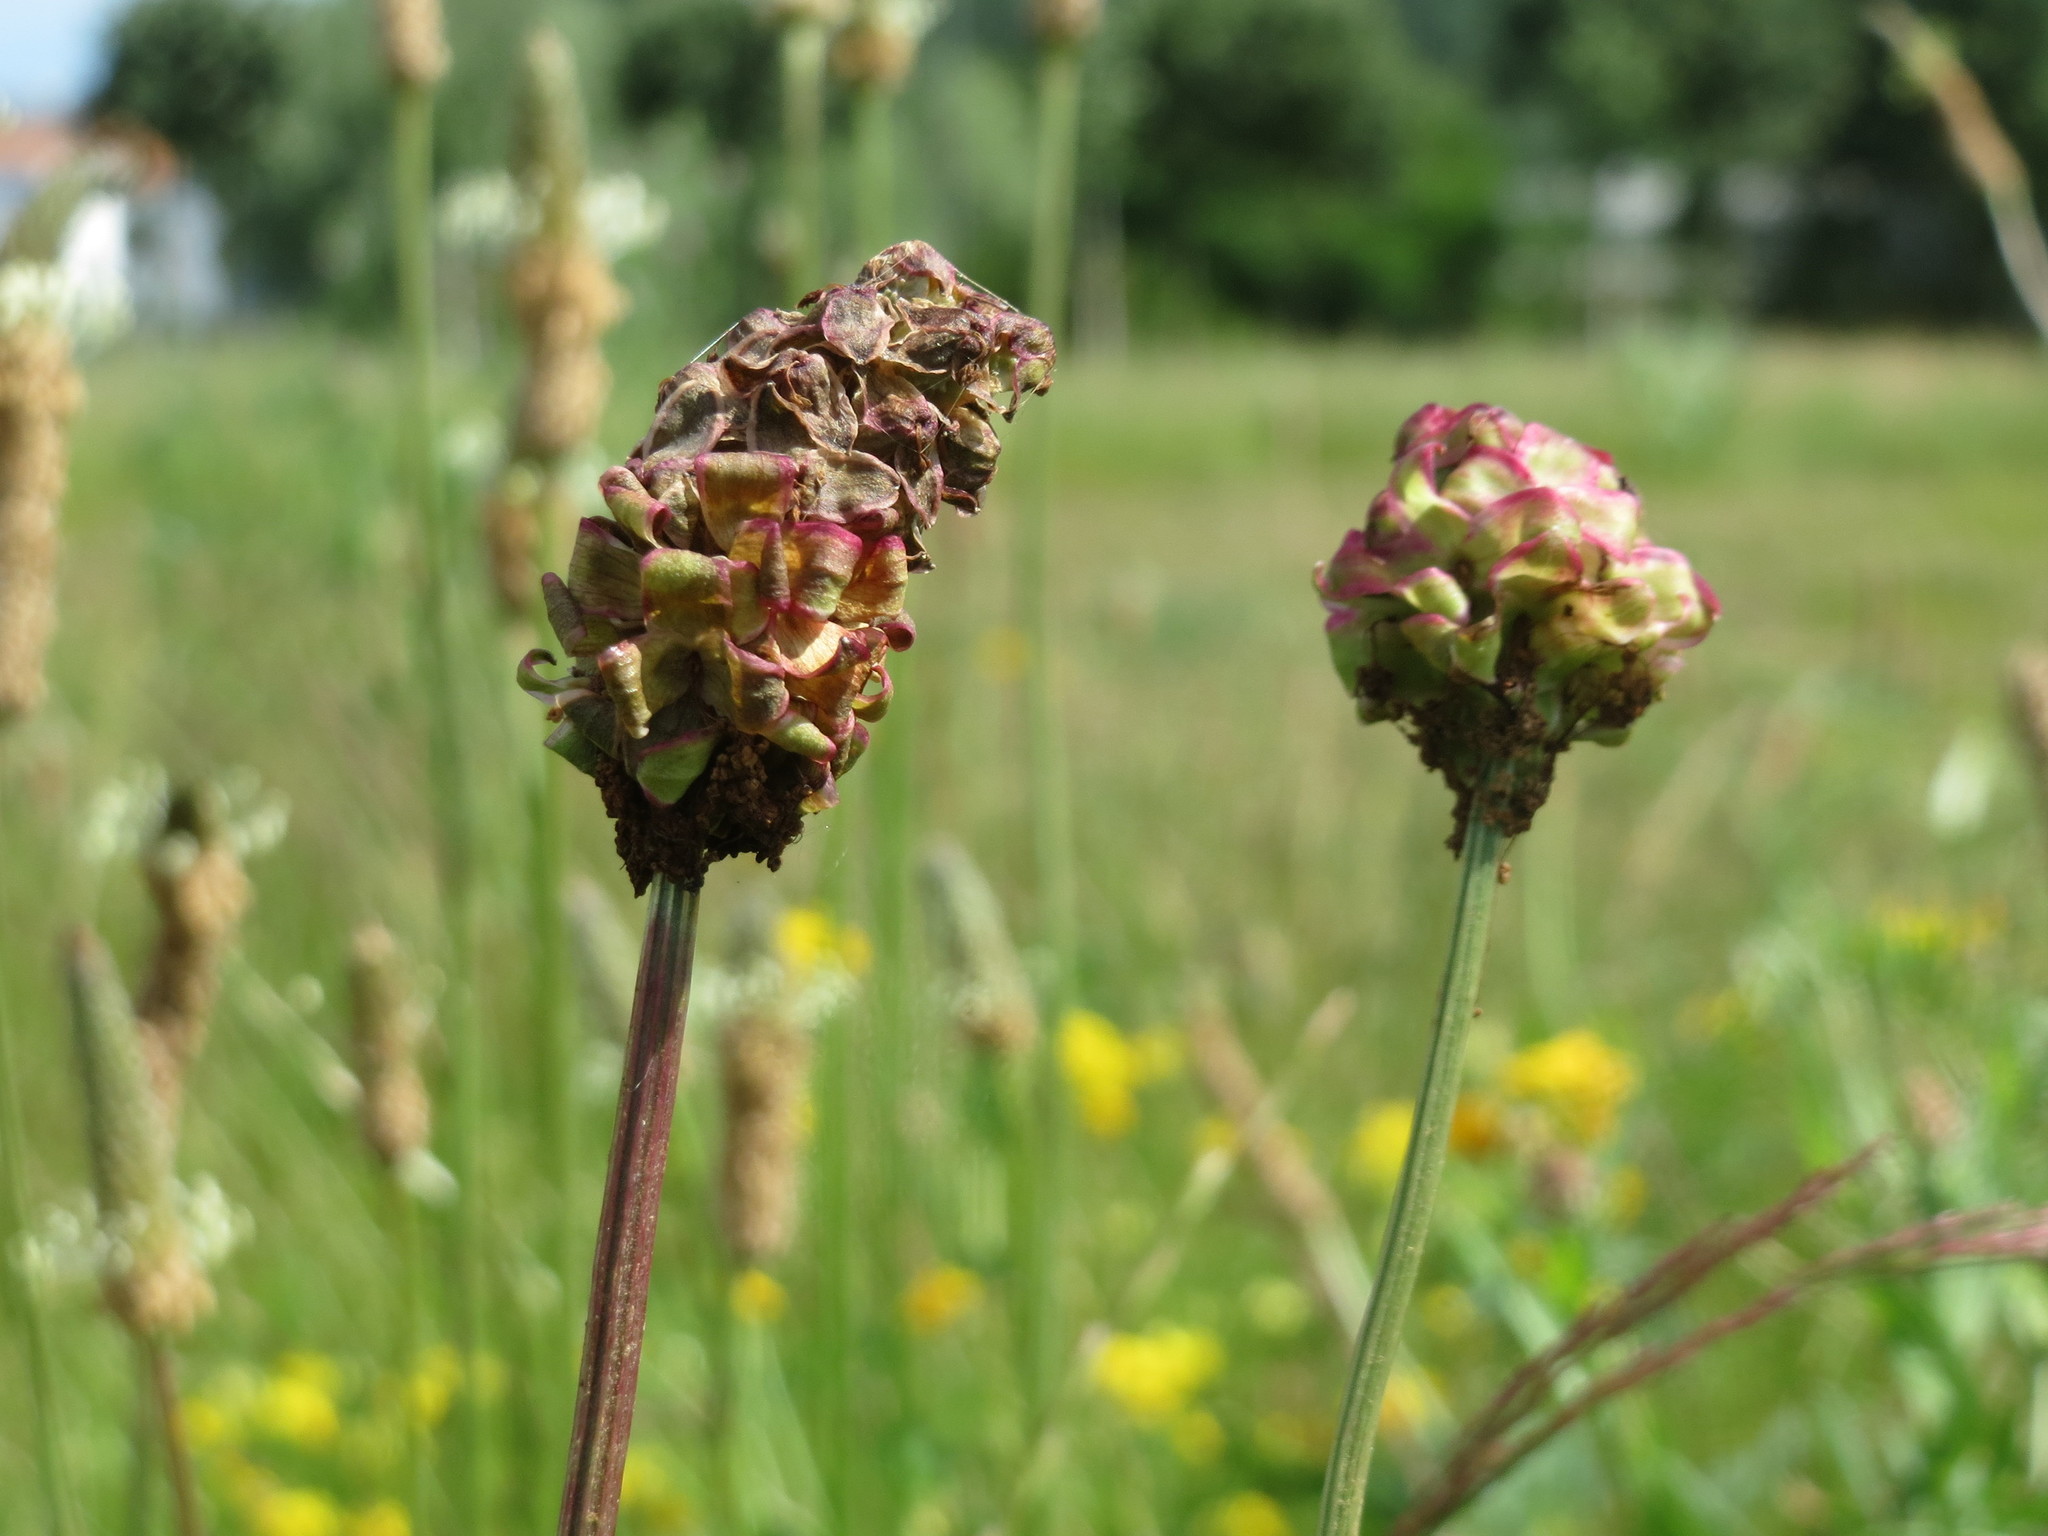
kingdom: Plantae
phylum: Tracheophyta
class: Magnoliopsida
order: Rosales
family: Rosaceae
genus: Poterium
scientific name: Poterium sanguisorba
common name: Salad burnet
